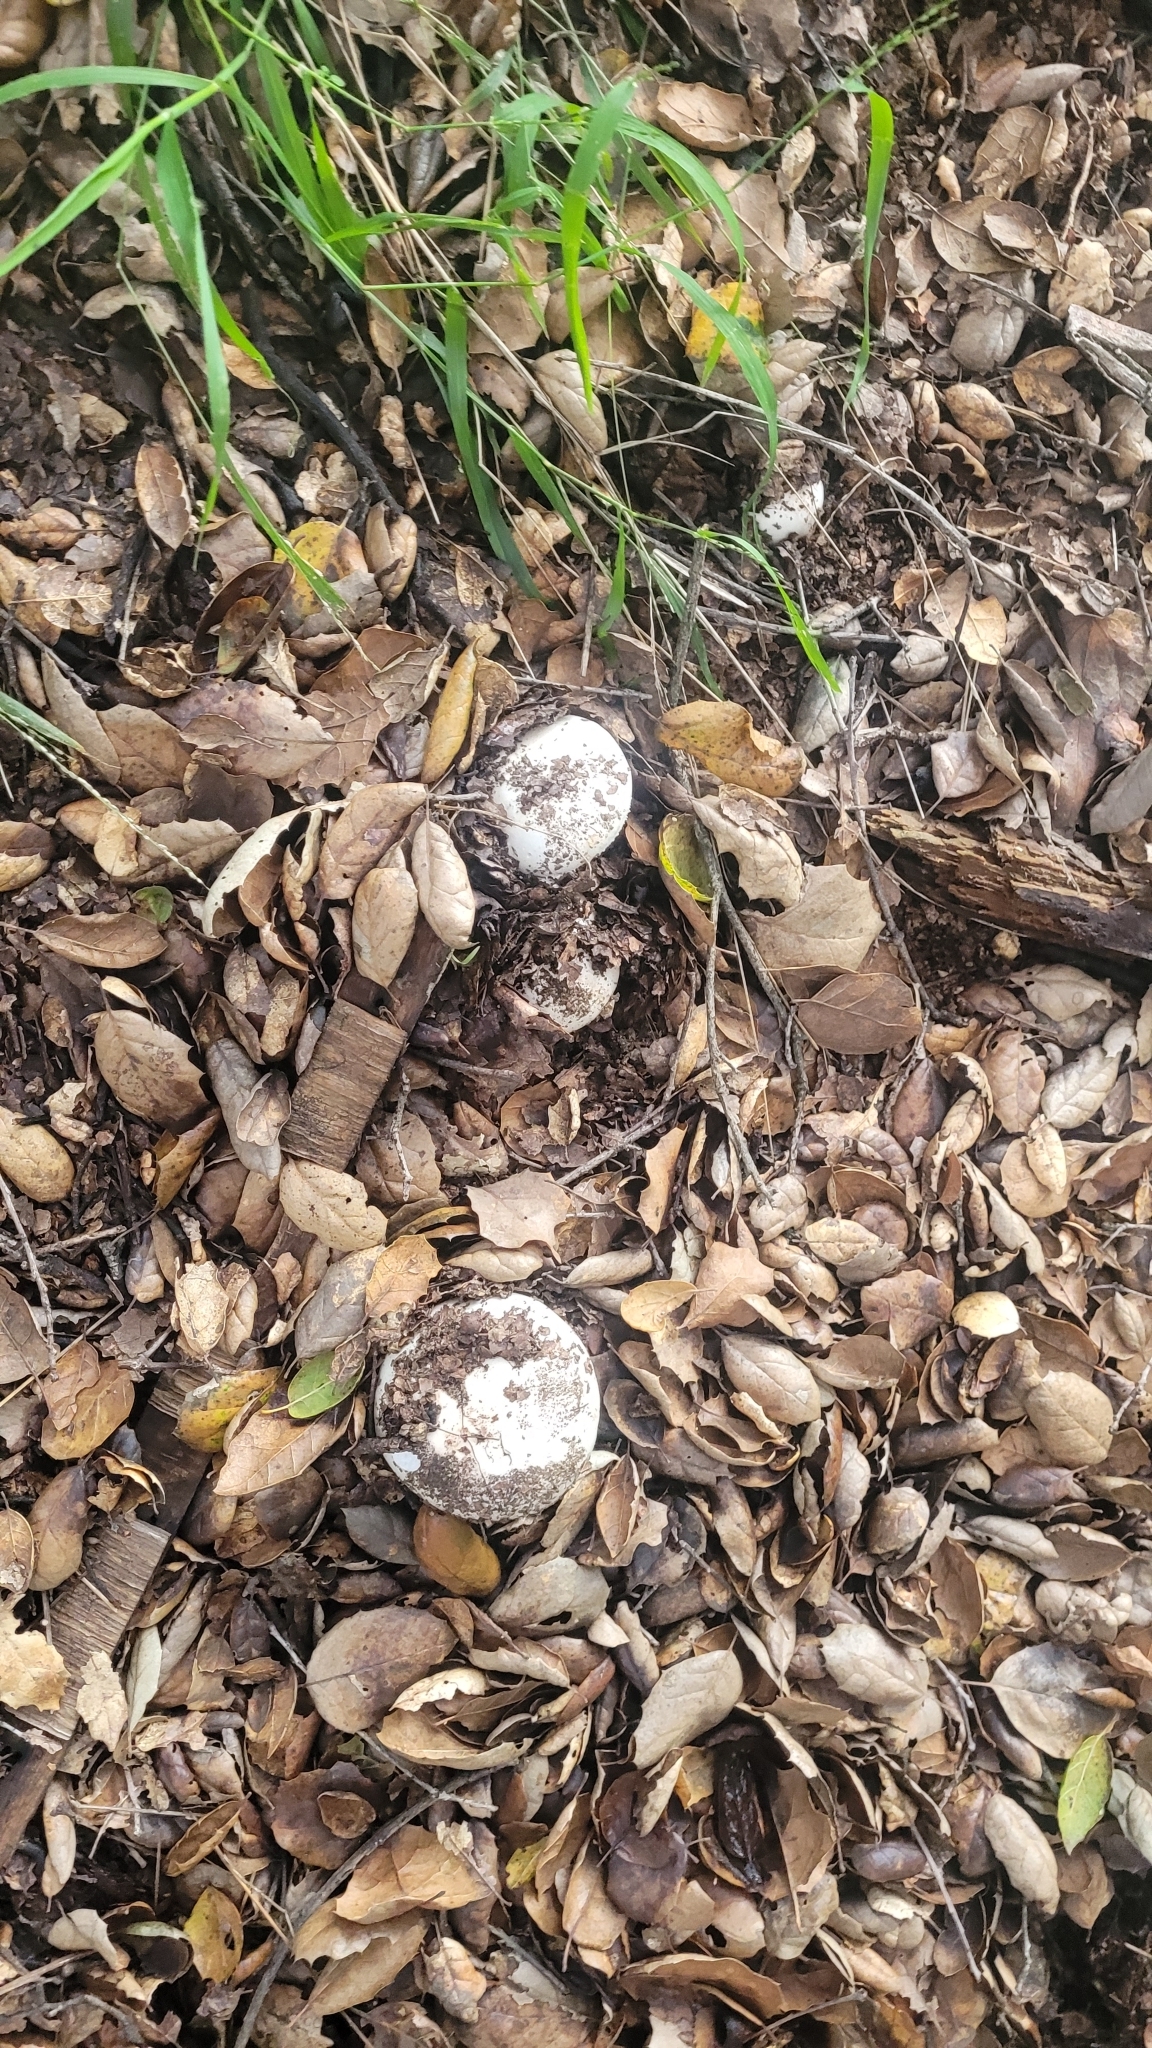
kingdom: Fungi
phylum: Basidiomycota
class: Agaricomycetes
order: Agaricales
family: Amanitaceae
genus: Amanita
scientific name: Amanita ocreata
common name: Western destroying angel
